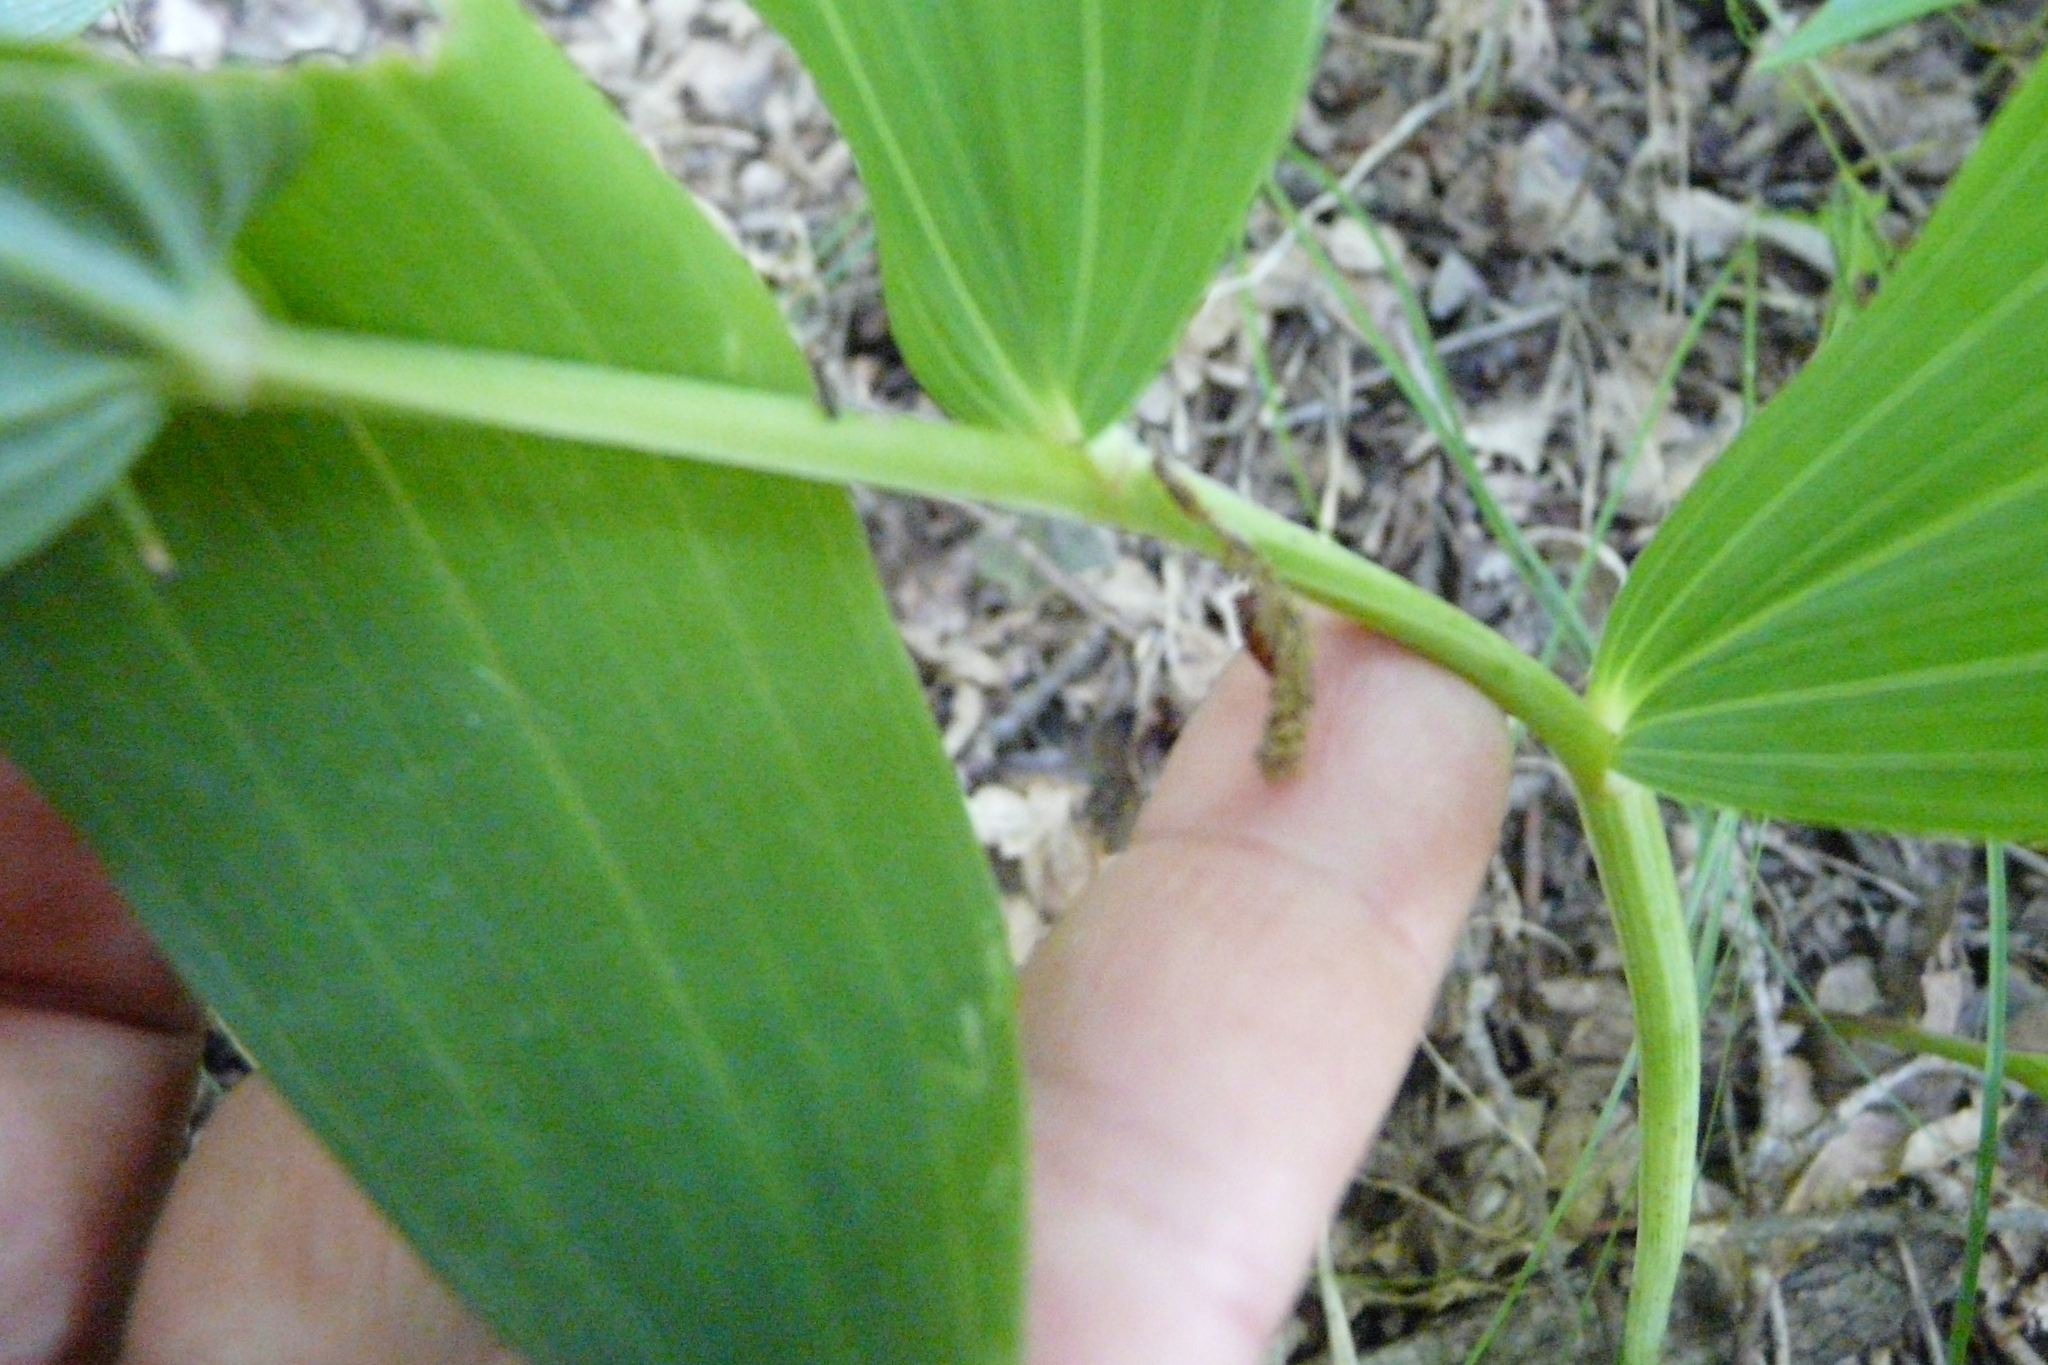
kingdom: Plantae
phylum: Tracheophyta
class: Liliopsida
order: Asparagales
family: Asparagaceae
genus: Polygonatum
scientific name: Polygonatum odoratum
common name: Angular solomon's-seal
